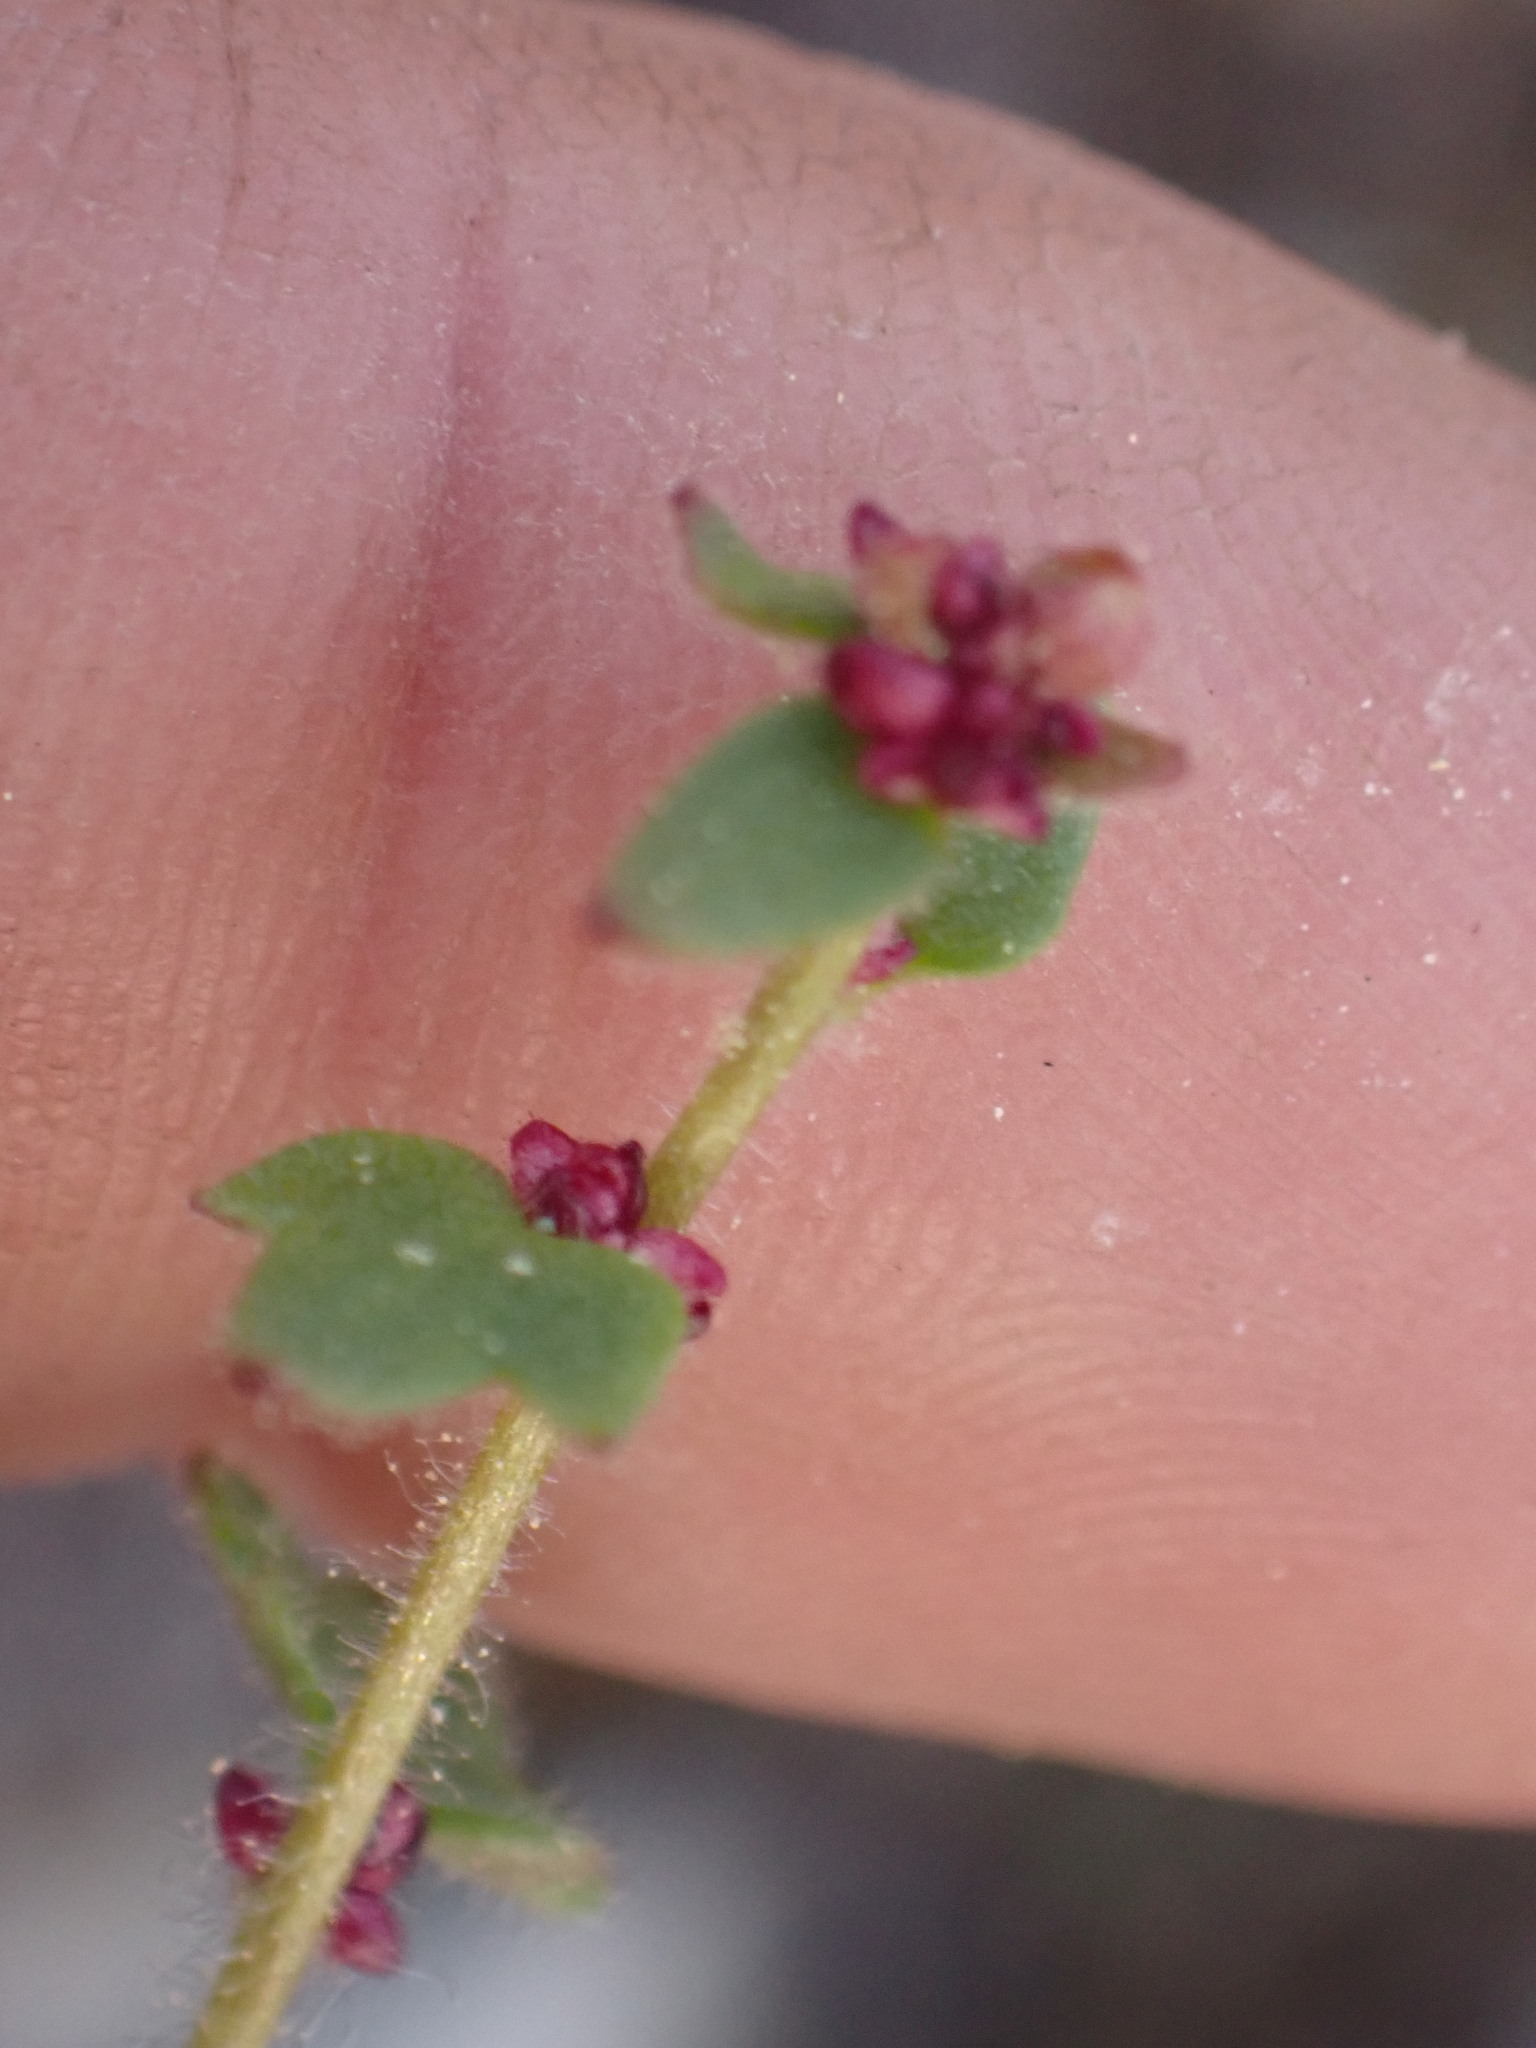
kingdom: Plantae
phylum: Tracheophyta
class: Magnoliopsida
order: Saxifragales
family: Saxifragaceae
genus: Saxifraga
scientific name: Saxifraga cernua
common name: Drooping saxifrage
